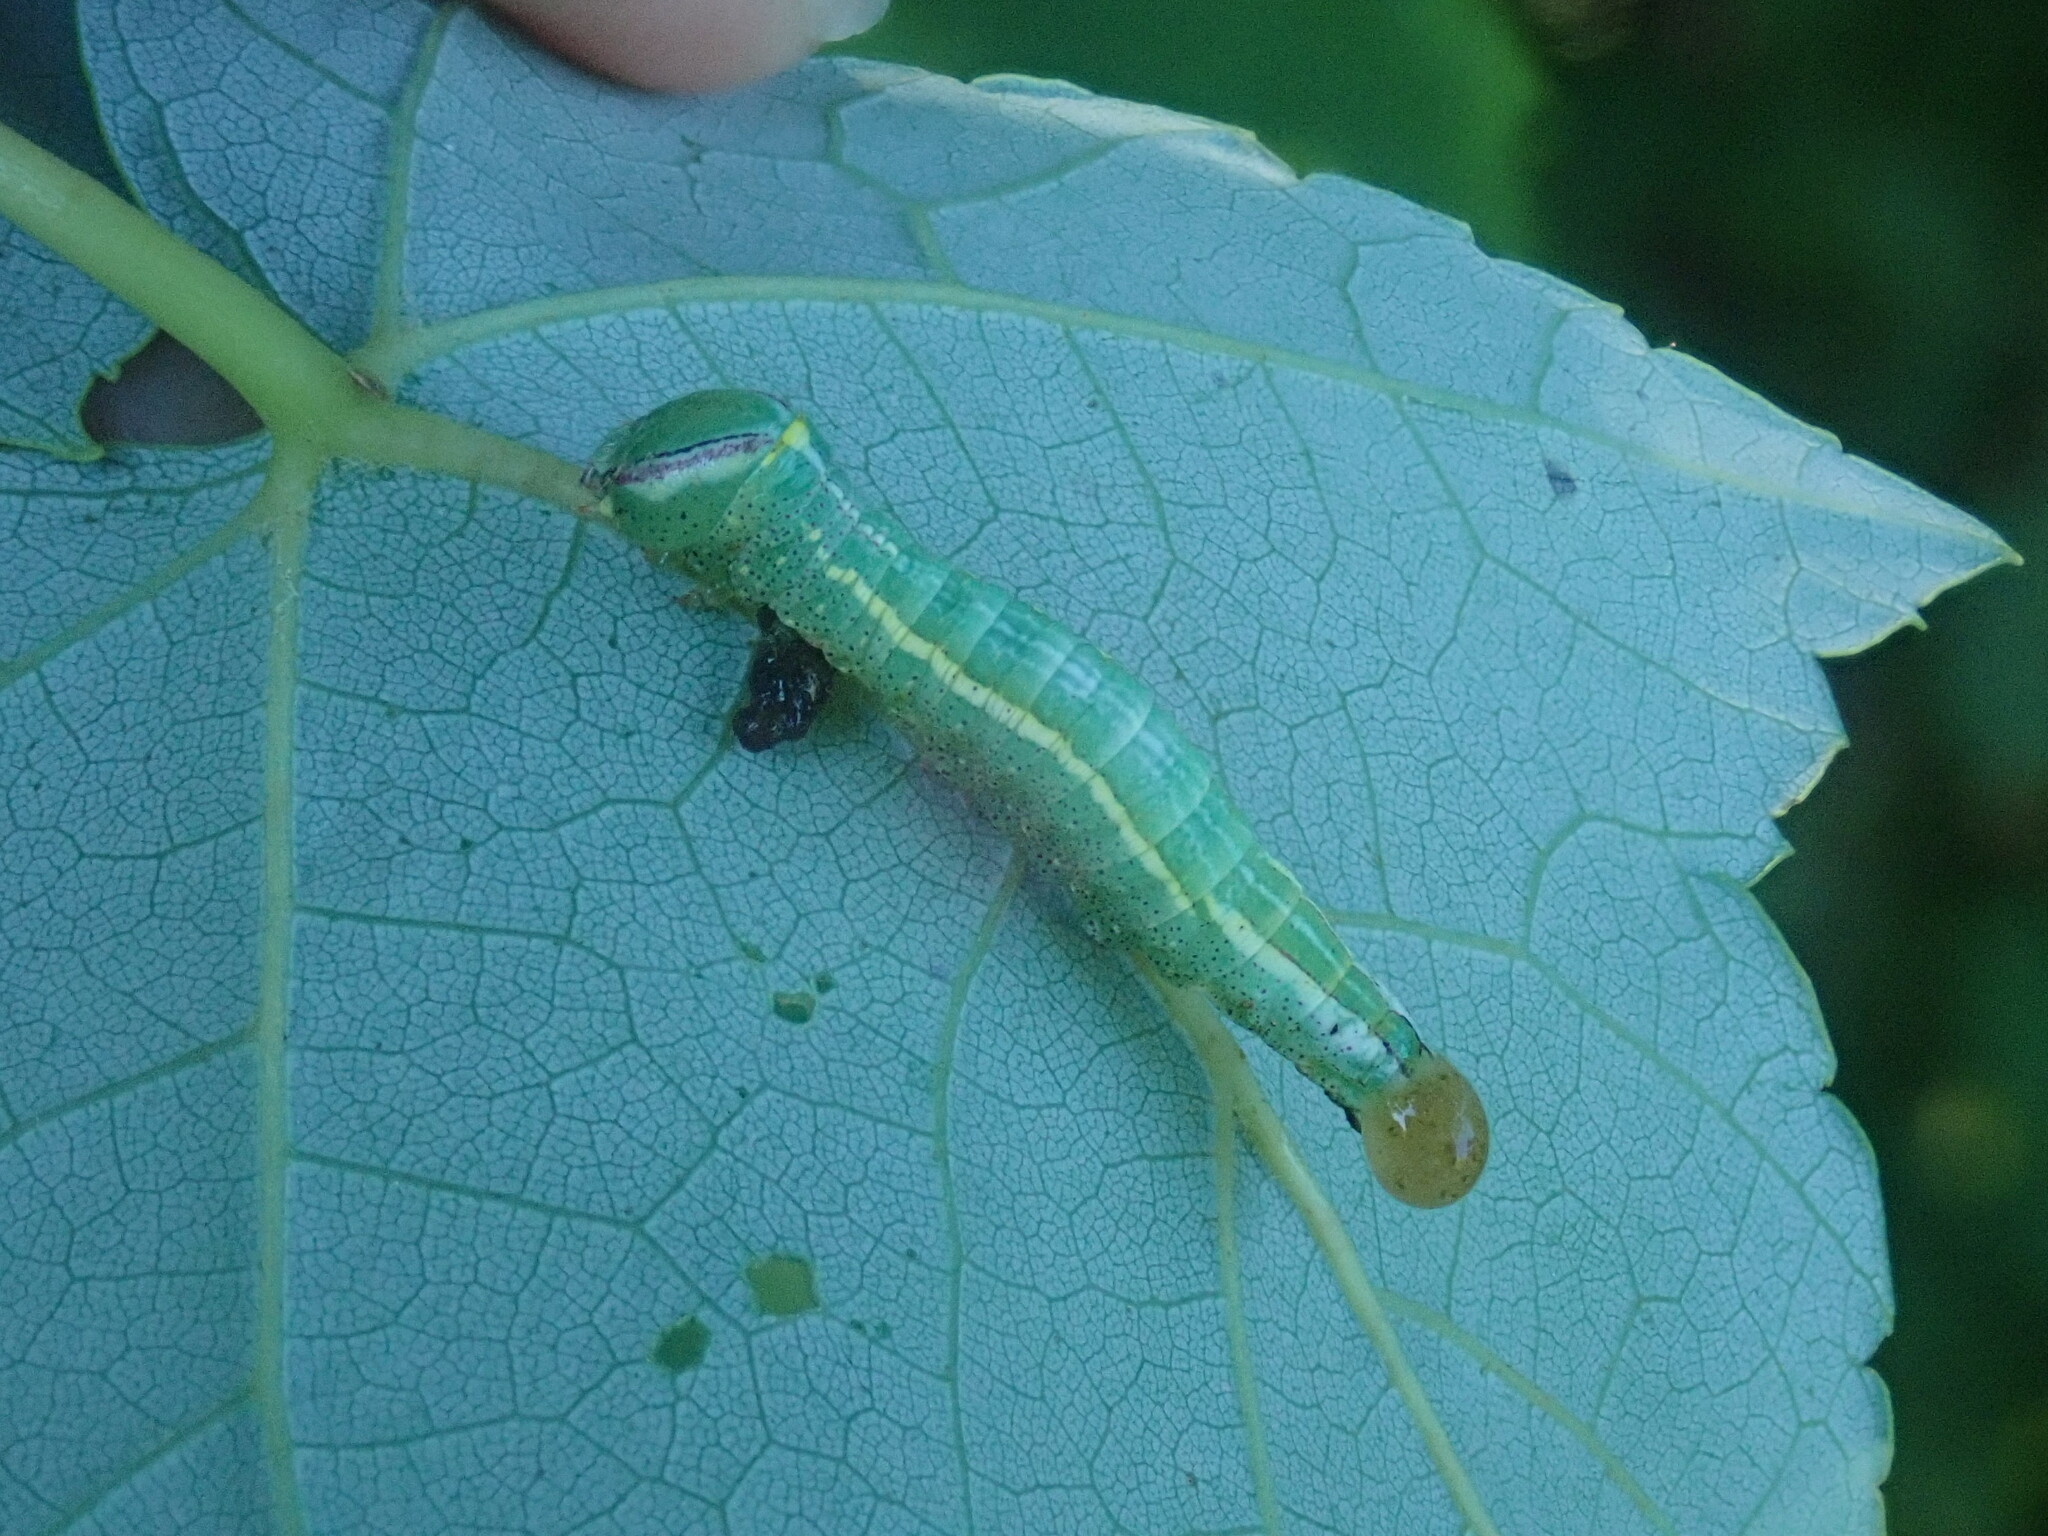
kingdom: Animalia
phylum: Arthropoda
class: Insecta
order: Lepidoptera
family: Notodontidae
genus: Disphragis
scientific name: Disphragis Cecrita guttivitta
